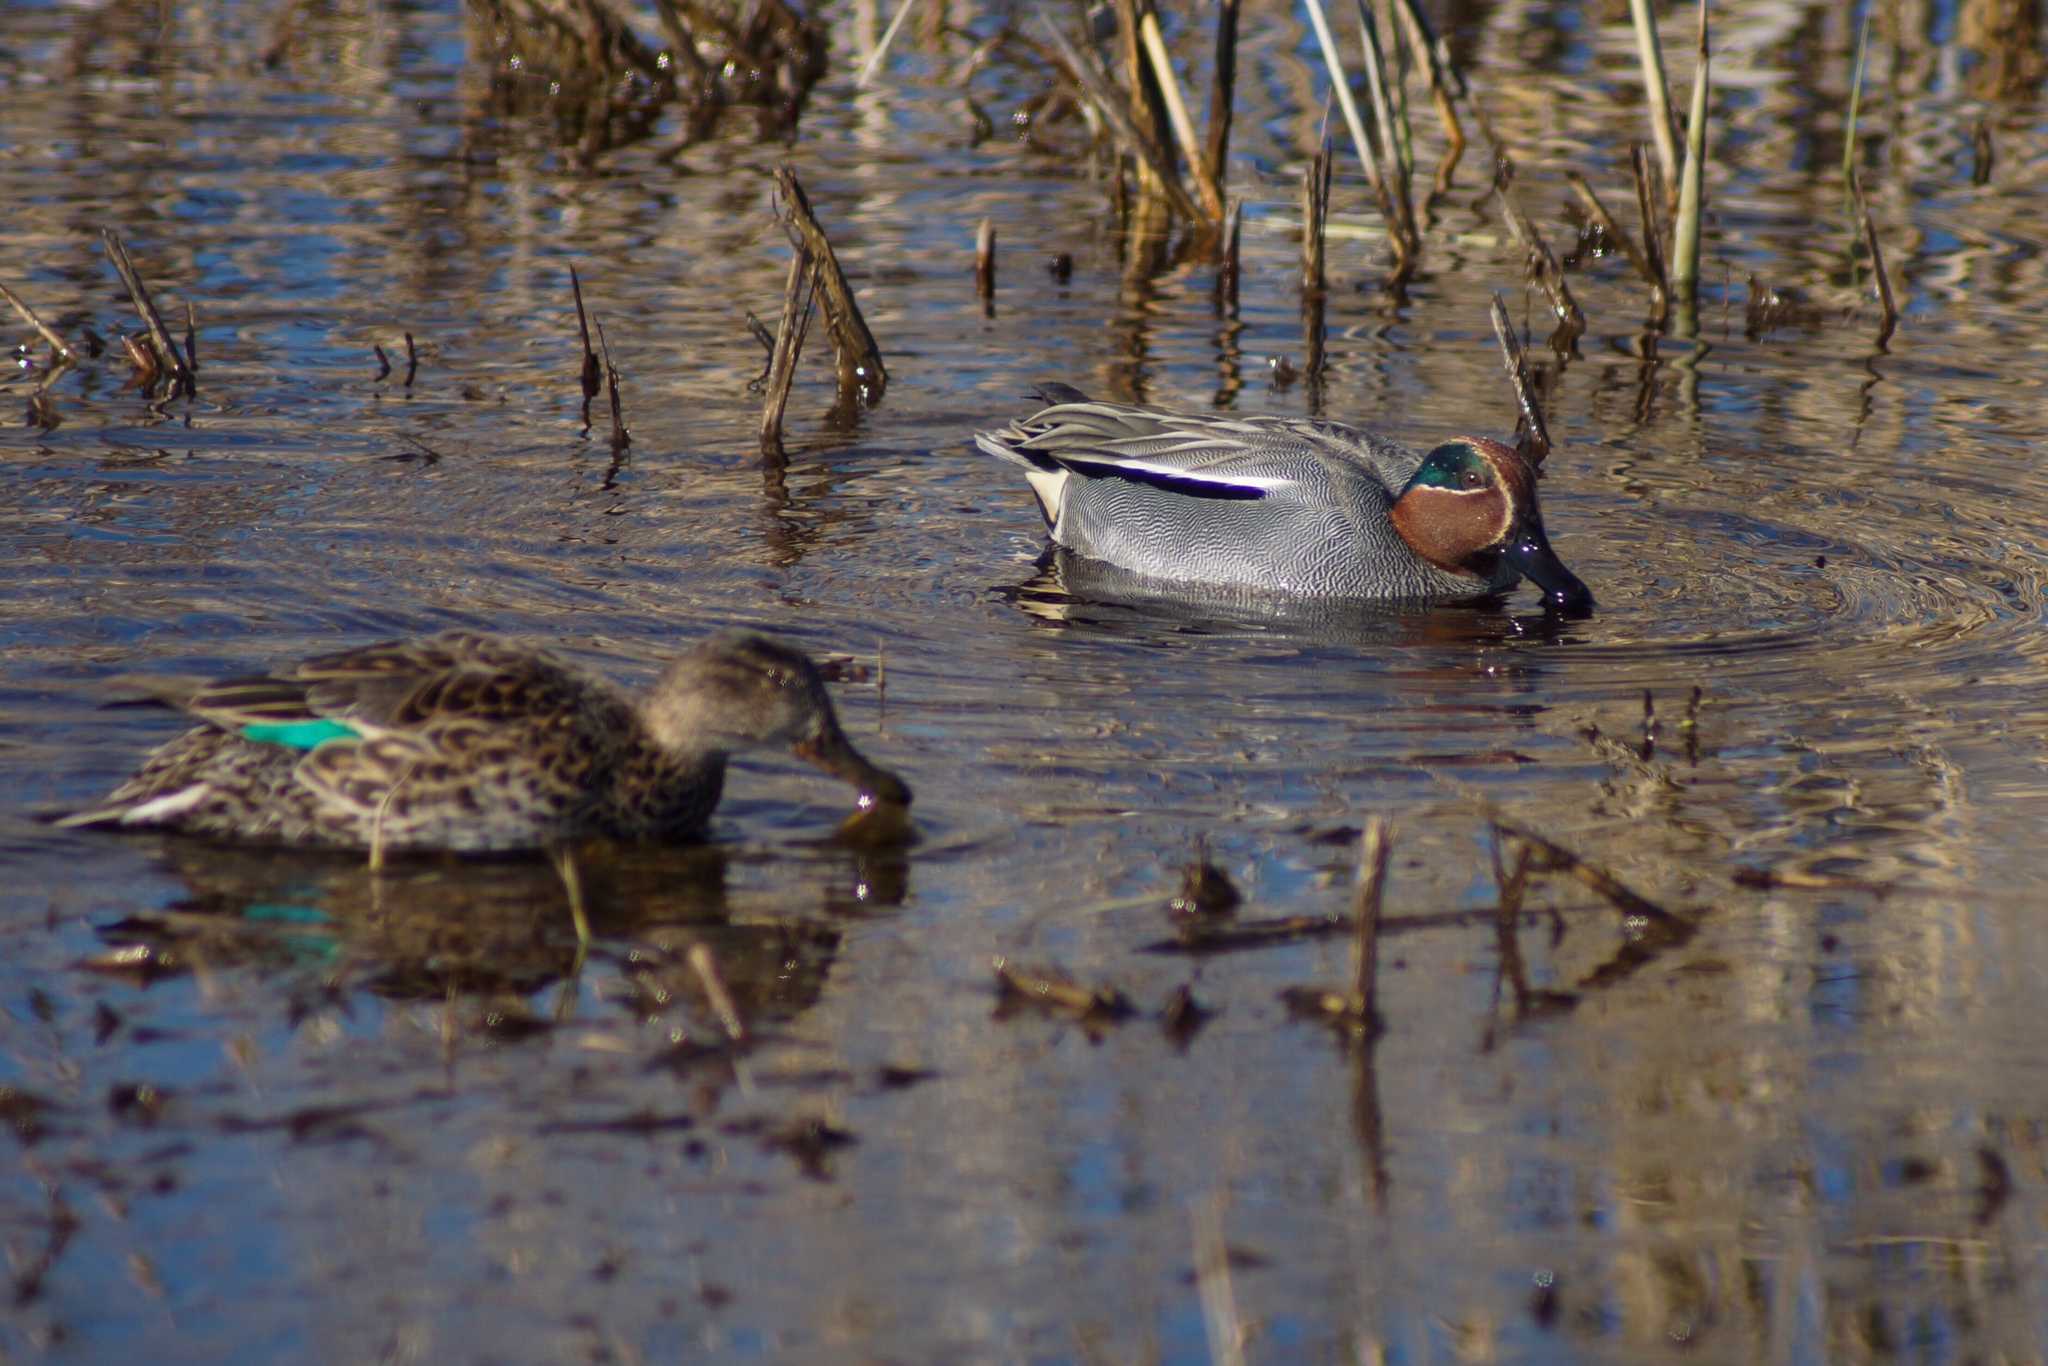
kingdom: Animalia
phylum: Chordata
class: Aves
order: Anseriformes
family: Anatidae
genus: Anas
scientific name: Anas crecca
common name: Eurasian teal
